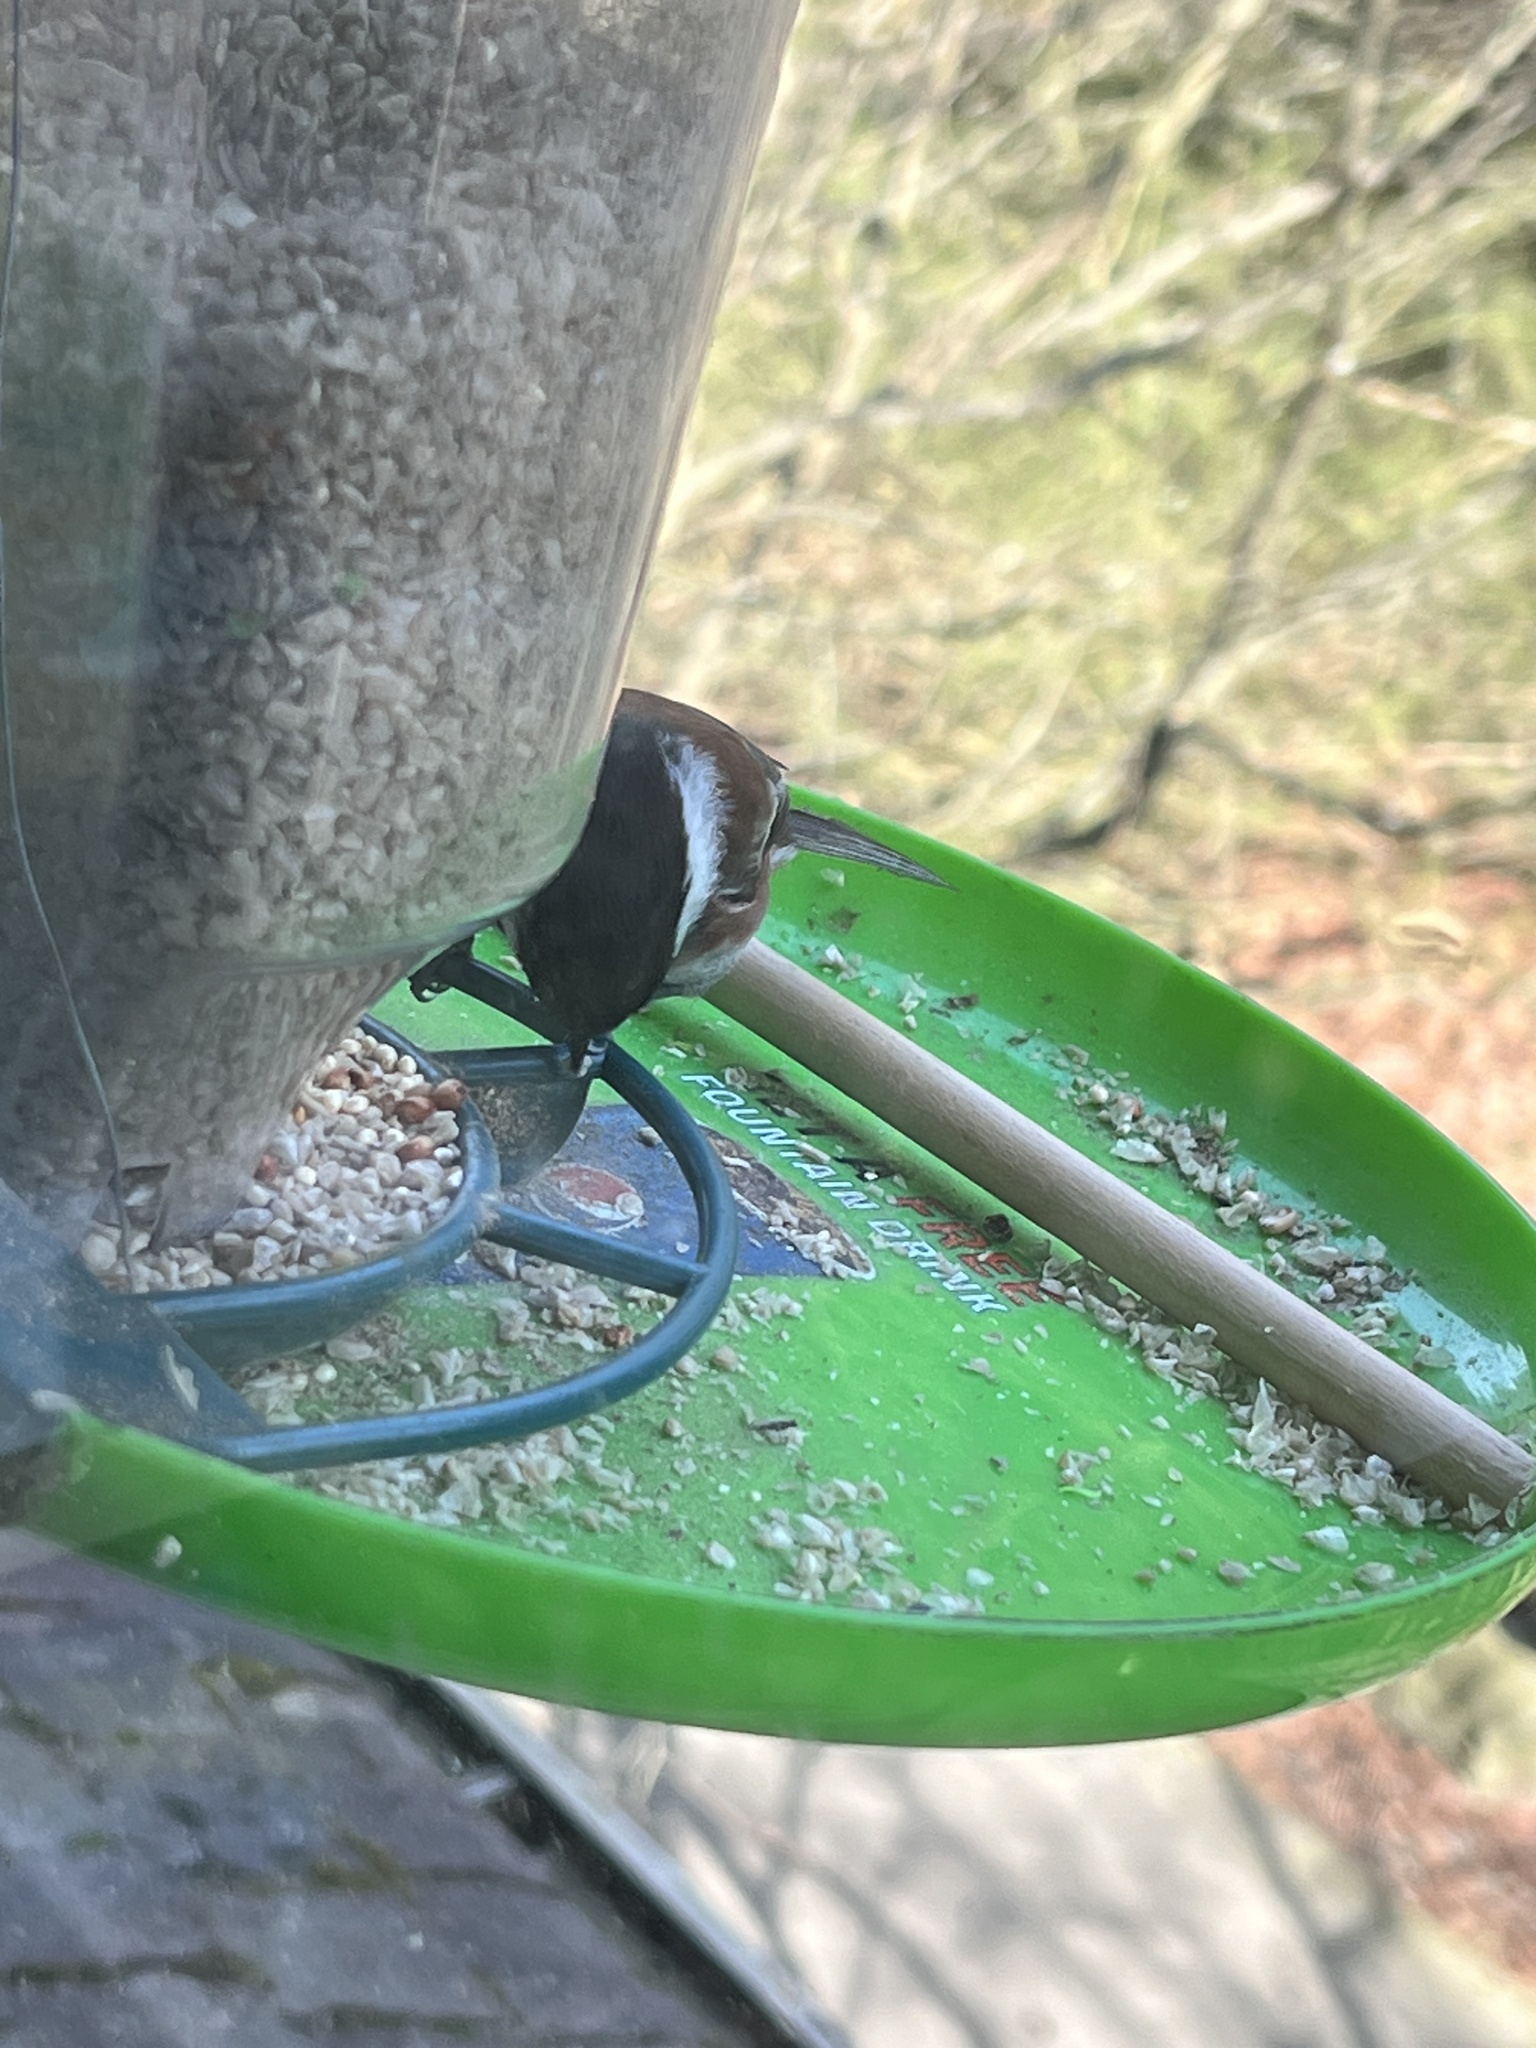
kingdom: Animalia
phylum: Chordata
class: Aves
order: Passeriformes
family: Paridae
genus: Poecile
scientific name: Poecile rufescens
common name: Chestnut-backed chickadee
